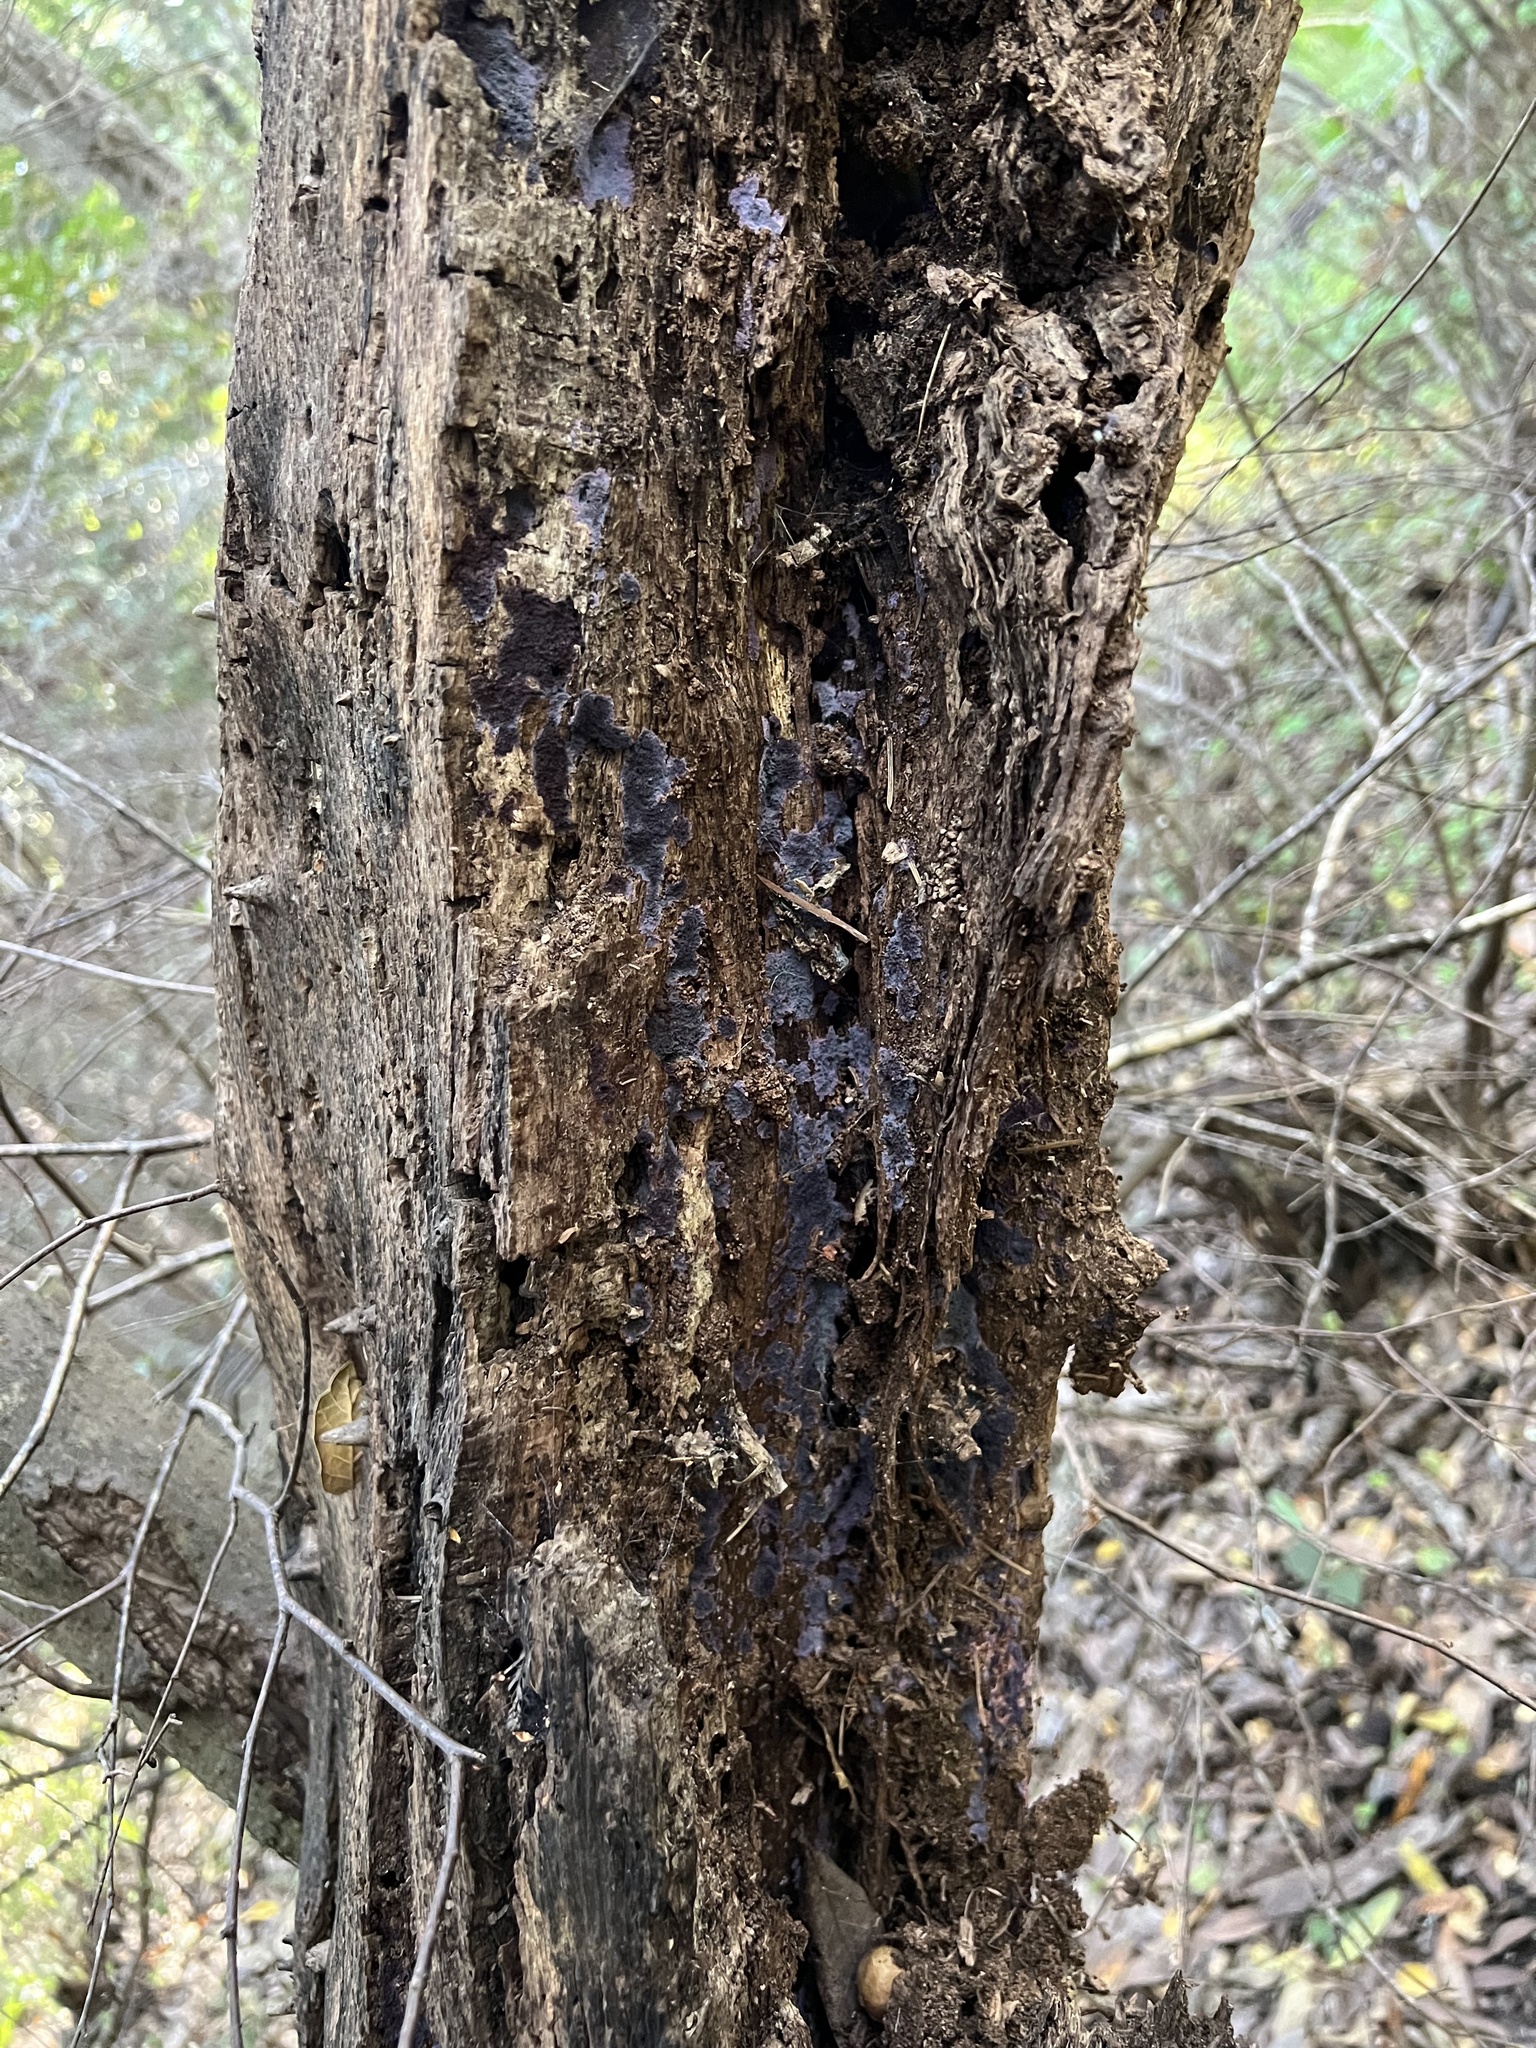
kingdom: Fungi
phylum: Basidiomycota
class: Agaricomycetes
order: Corticiales
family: Punctulariaceae
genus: Punctularia
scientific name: Punctularia atropurpurascens
